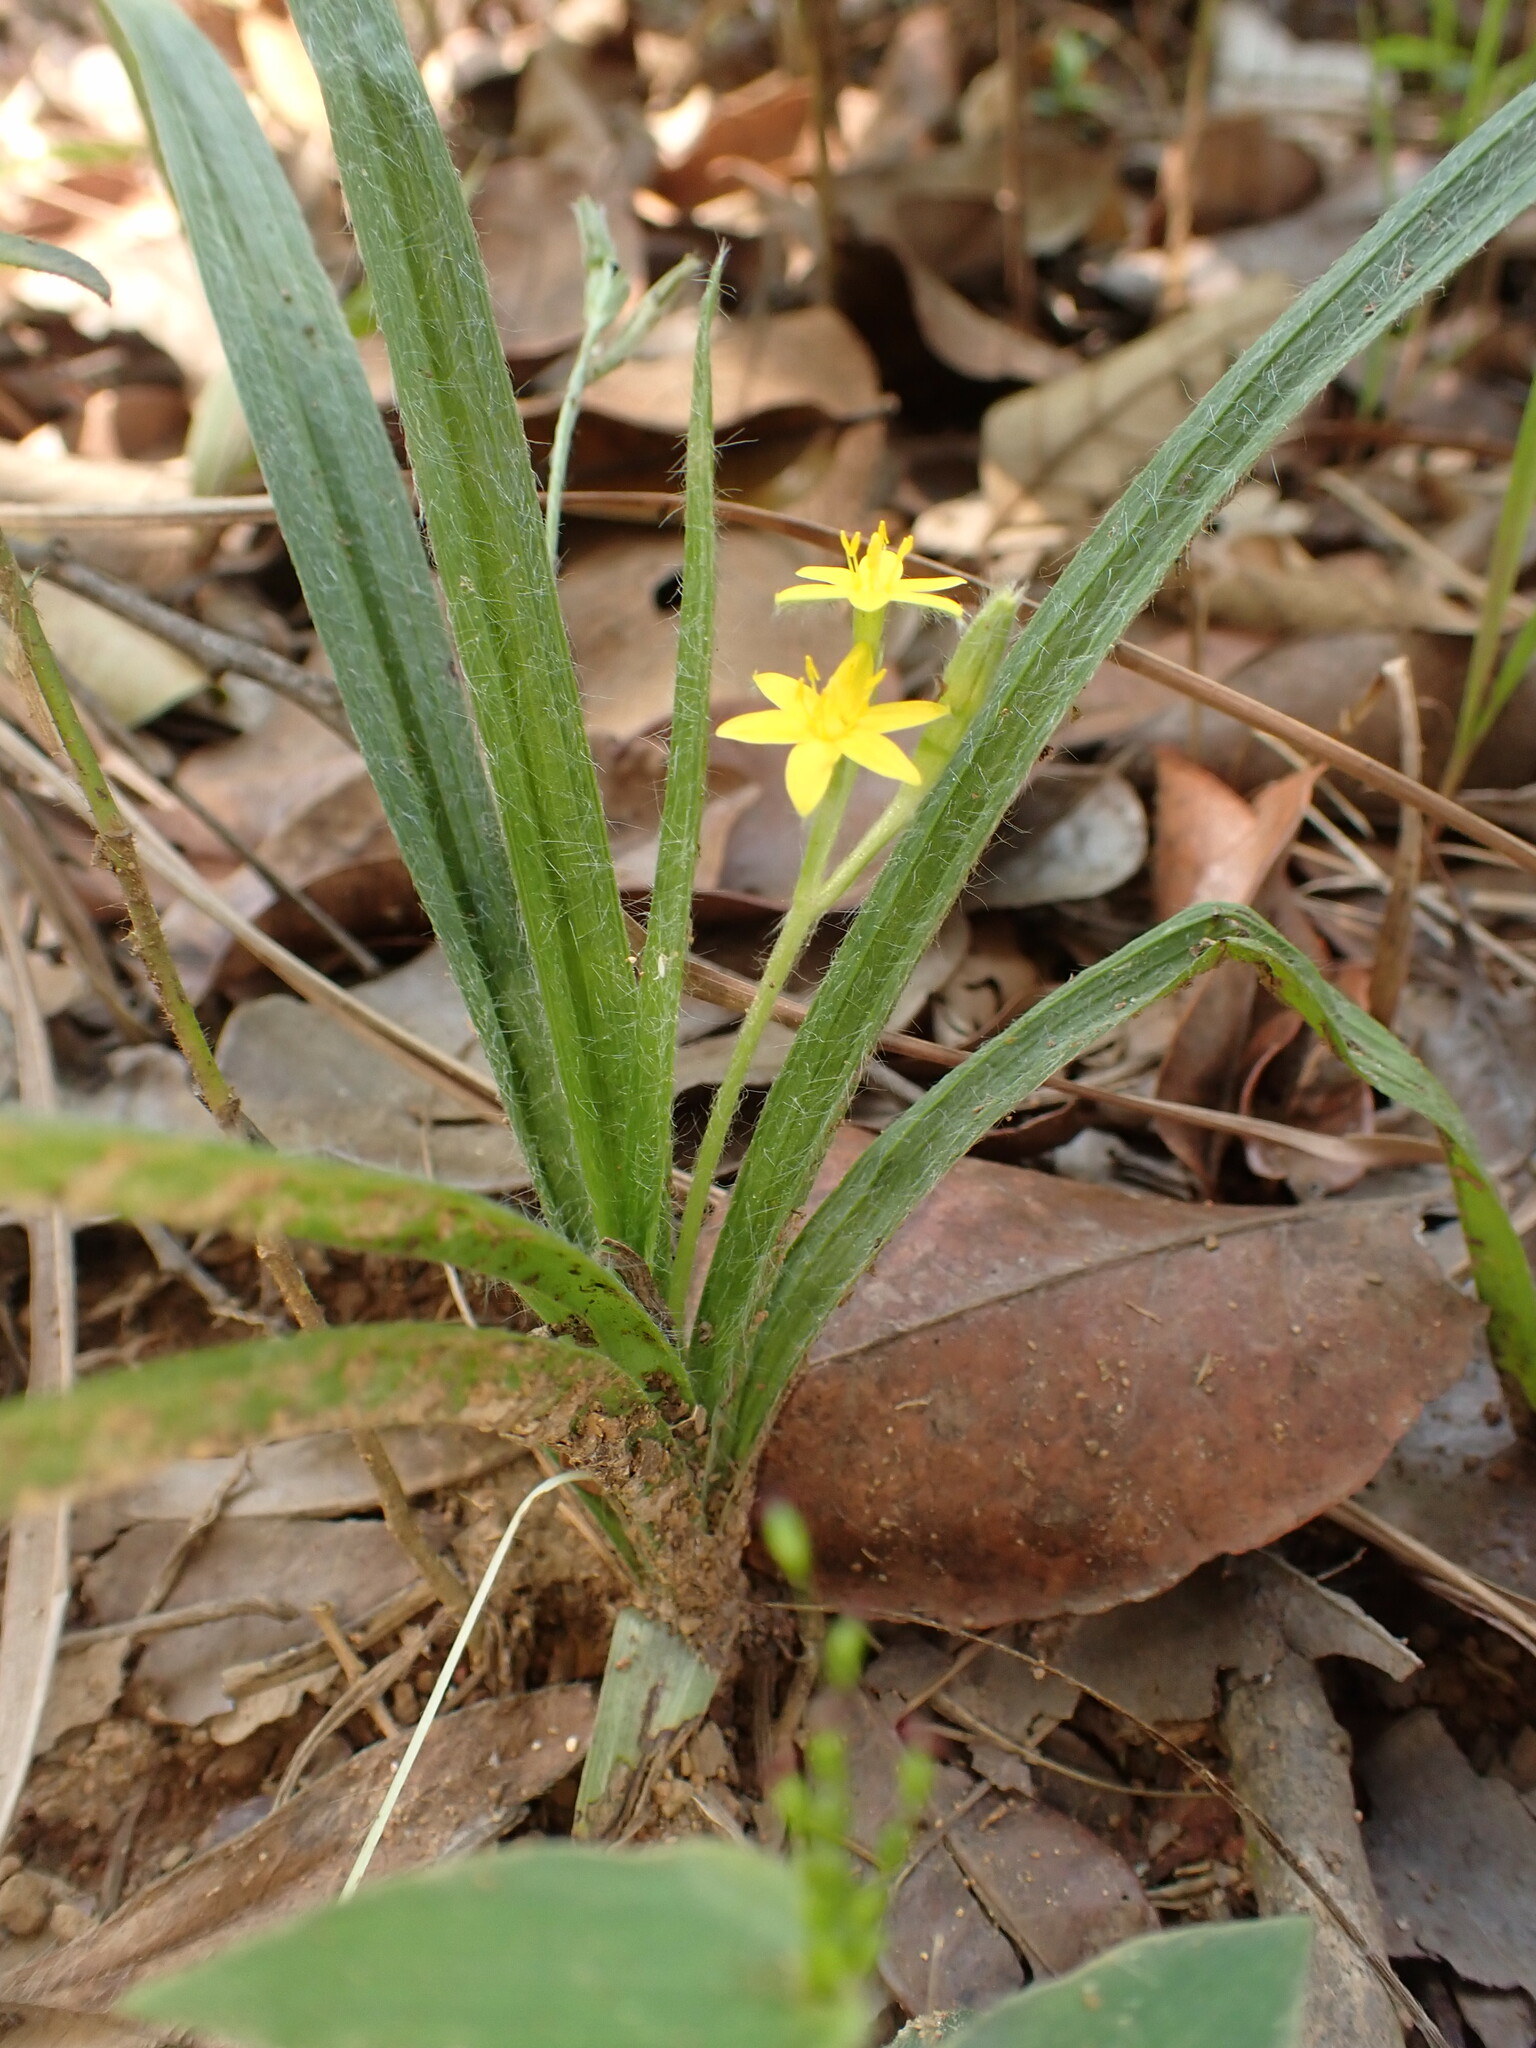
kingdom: Plantae
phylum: Tracheophyta
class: Liliopsida
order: Asparagales
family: Hypoxidaceae
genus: Hypoxis
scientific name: Hypoxis decumbens
